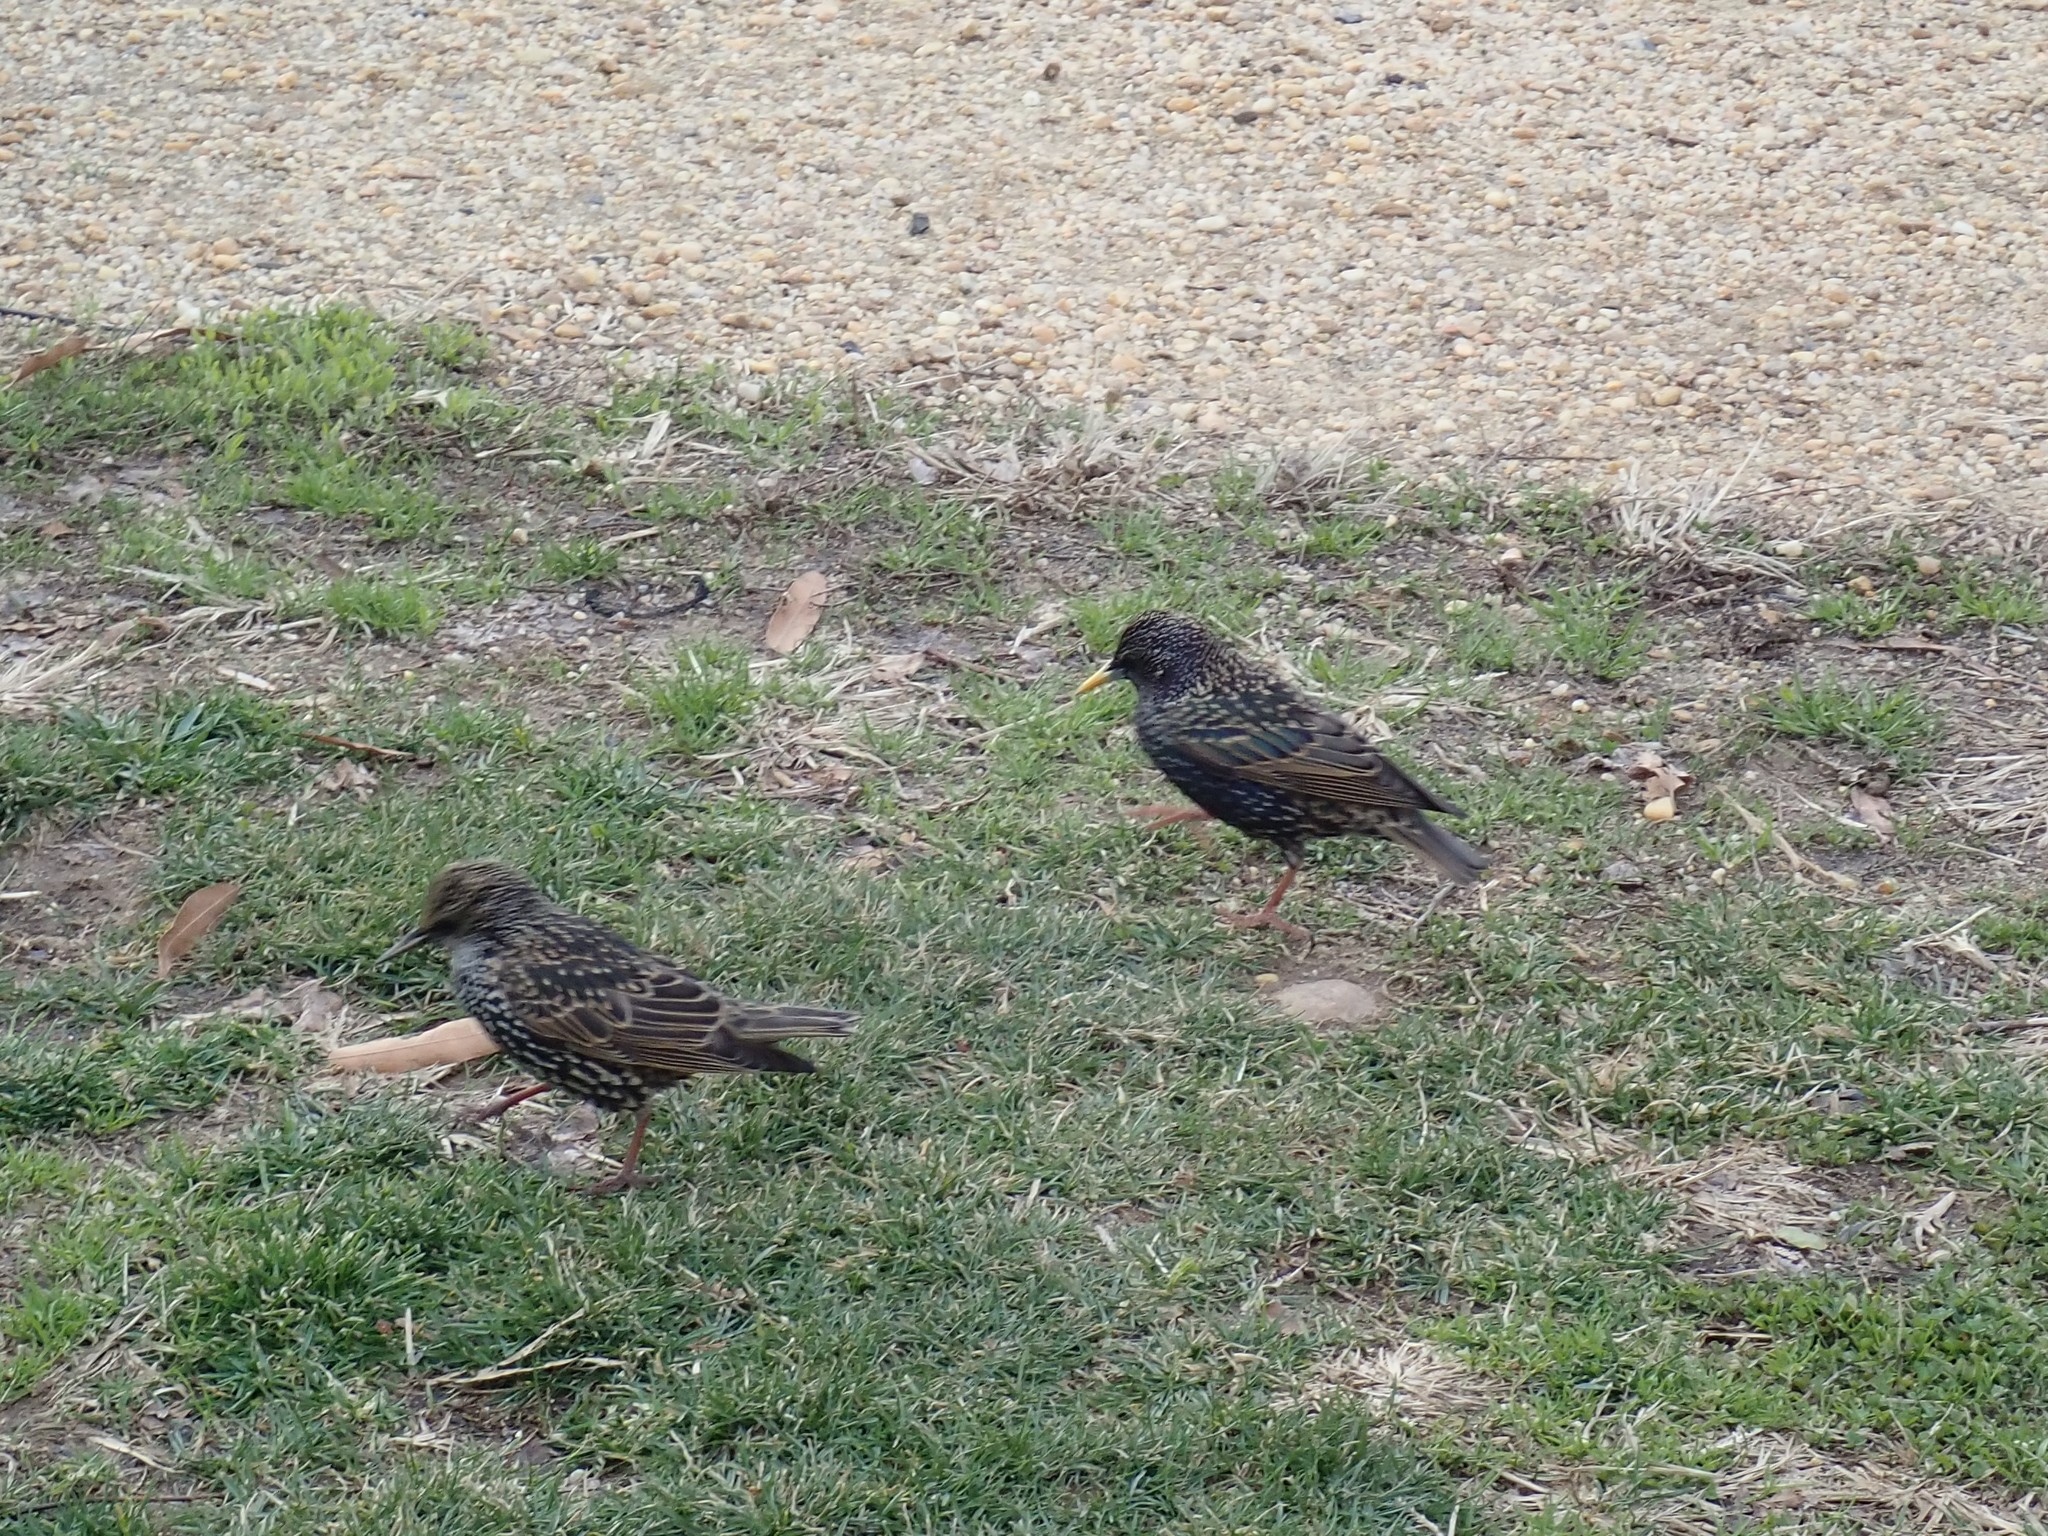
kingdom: Animalia
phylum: Chordata
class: Aves
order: Passeriformes
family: Sturnidae
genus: Sturnus
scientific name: Sturnus vulgaris
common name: Common starling
